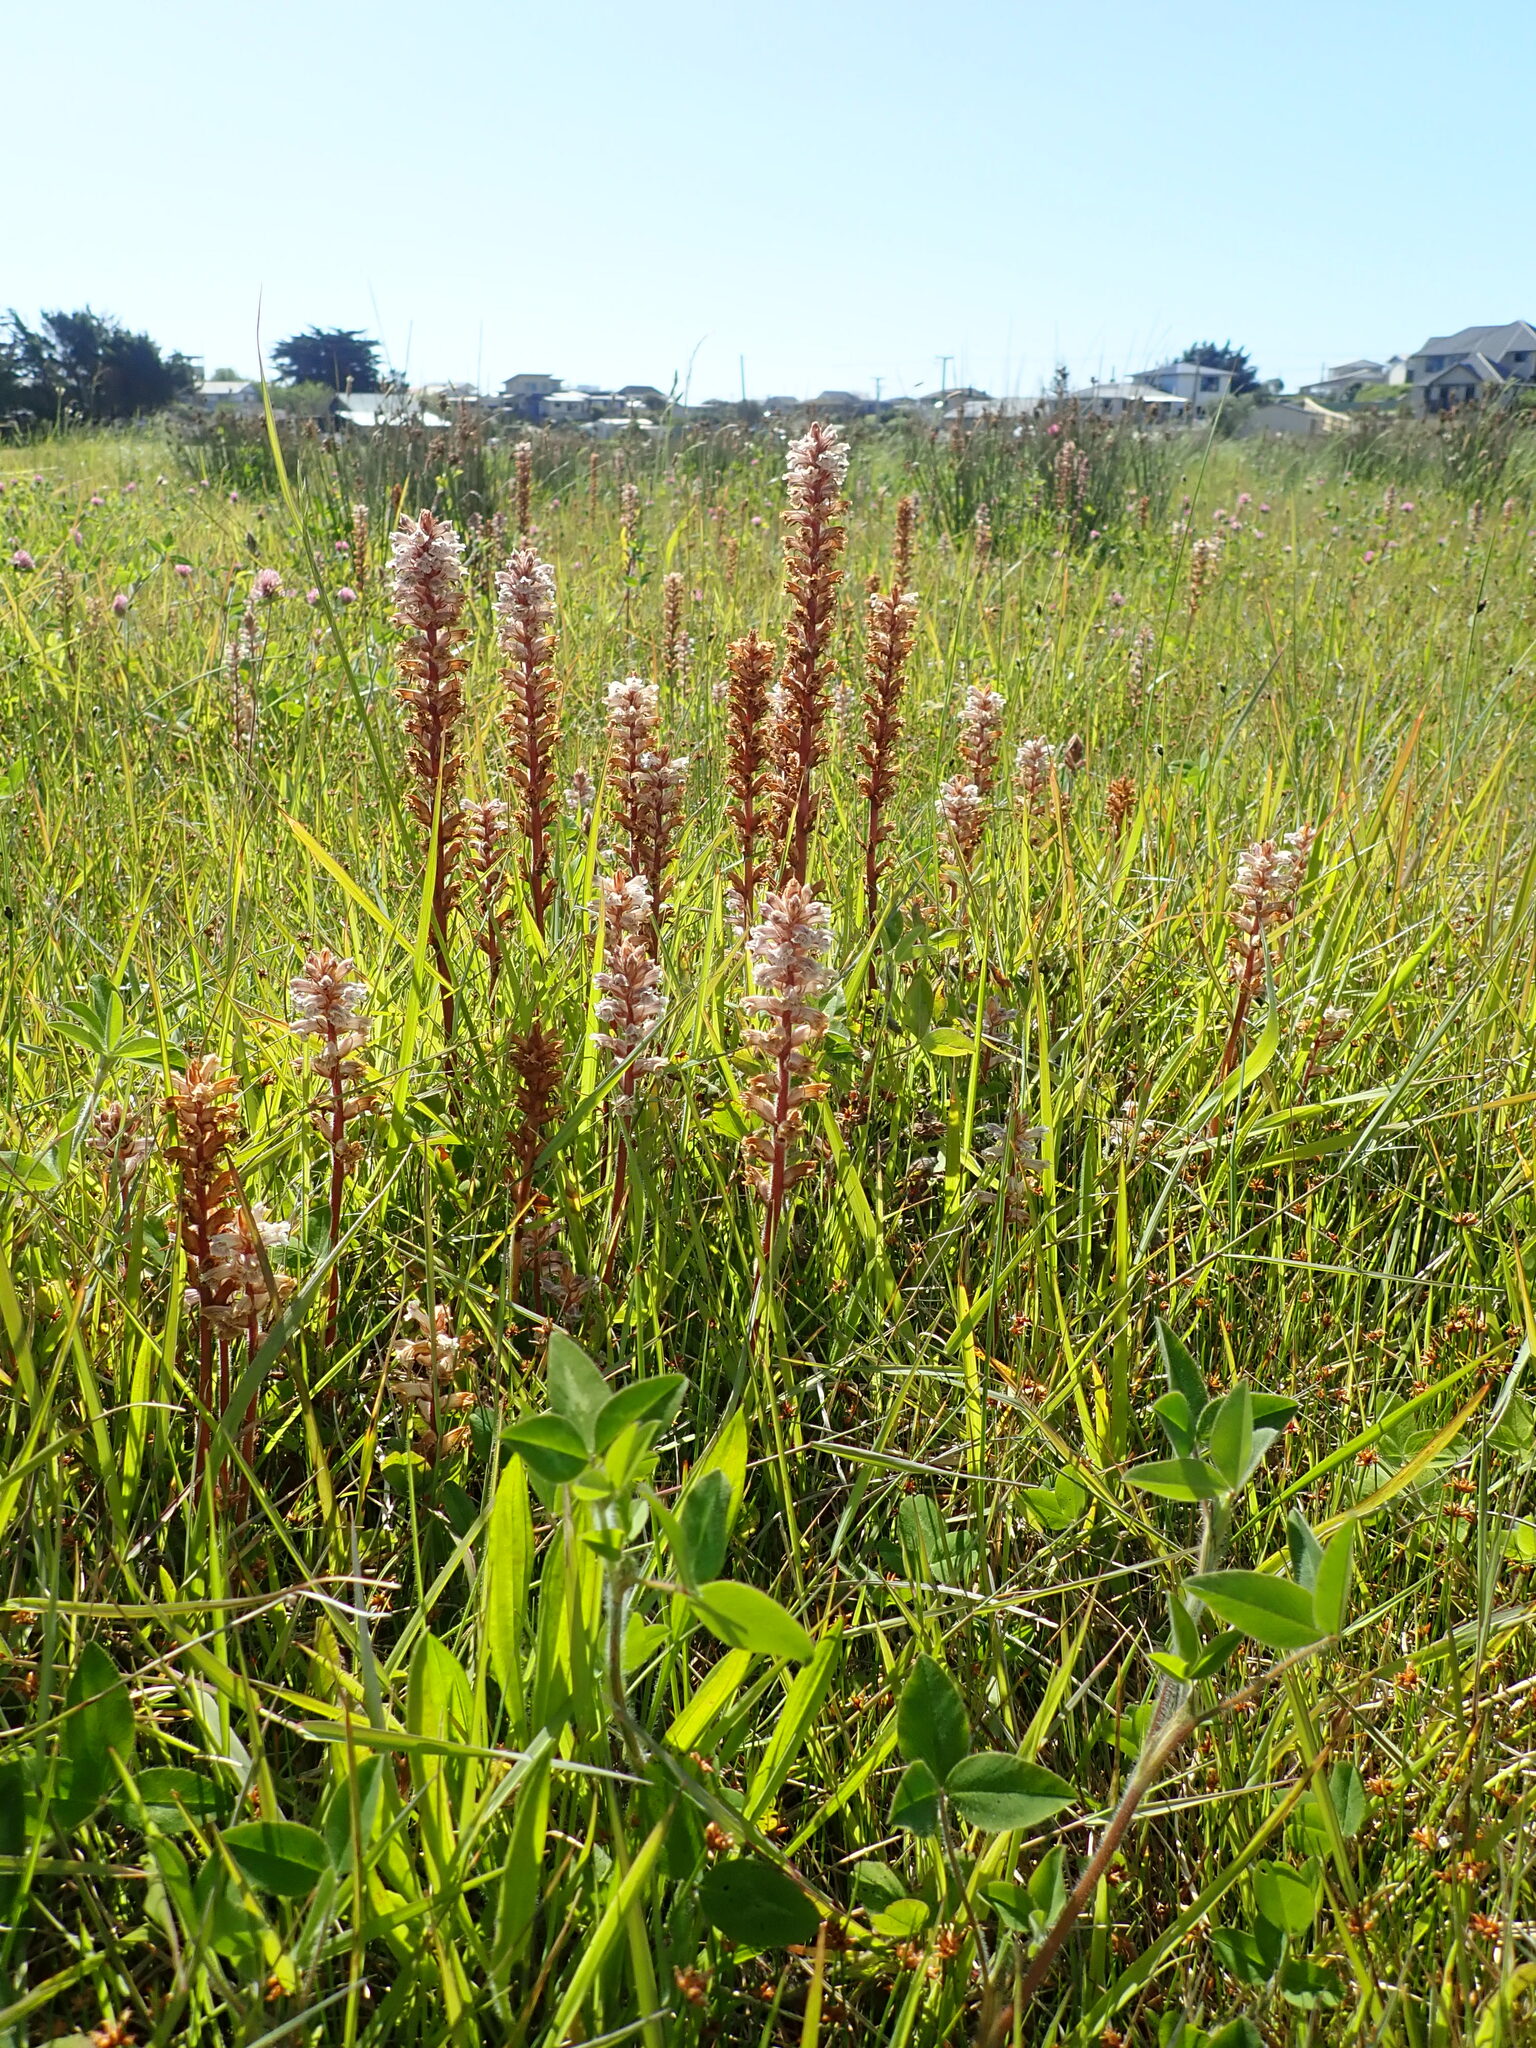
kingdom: Plantae
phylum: Tracheophyta
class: Magnoliopsida
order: Lamiales
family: Orobanchaceae
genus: Orobanche
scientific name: Orobanche minor
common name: Common broomrape
